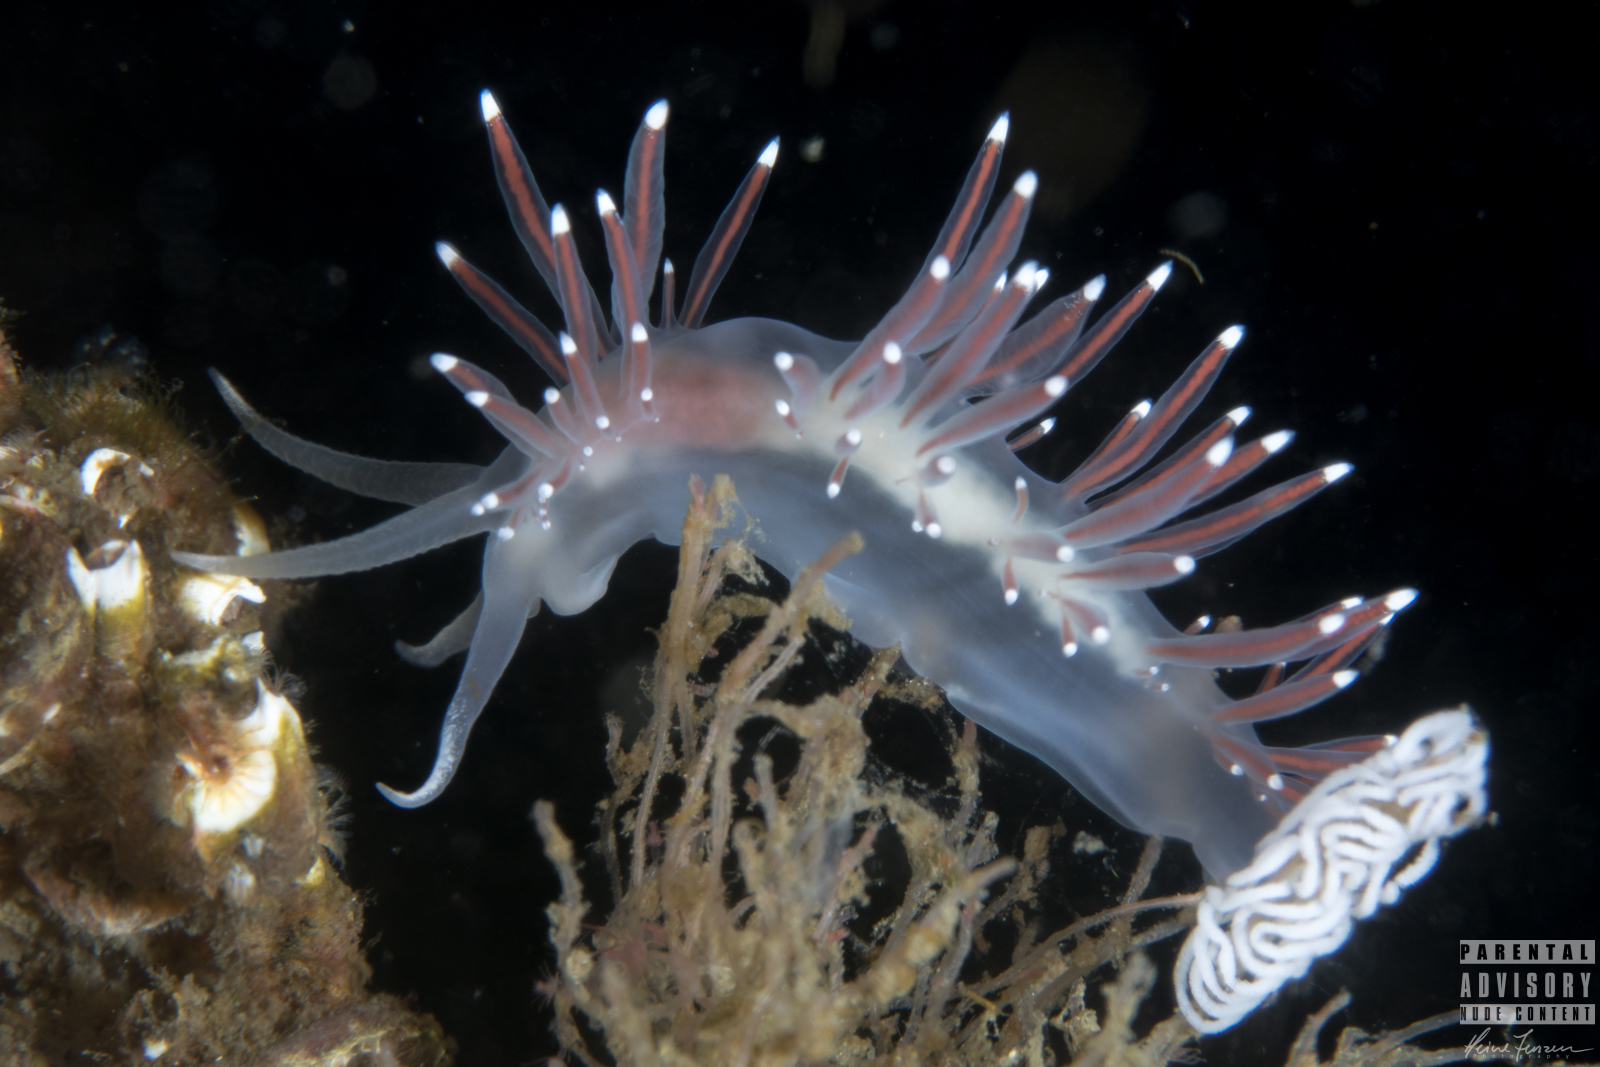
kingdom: Animalia
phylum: Mollusca
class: Gastropoda
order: Nudibranchia
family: Coryphellidae
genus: Coryphella
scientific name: Coryphella browni
